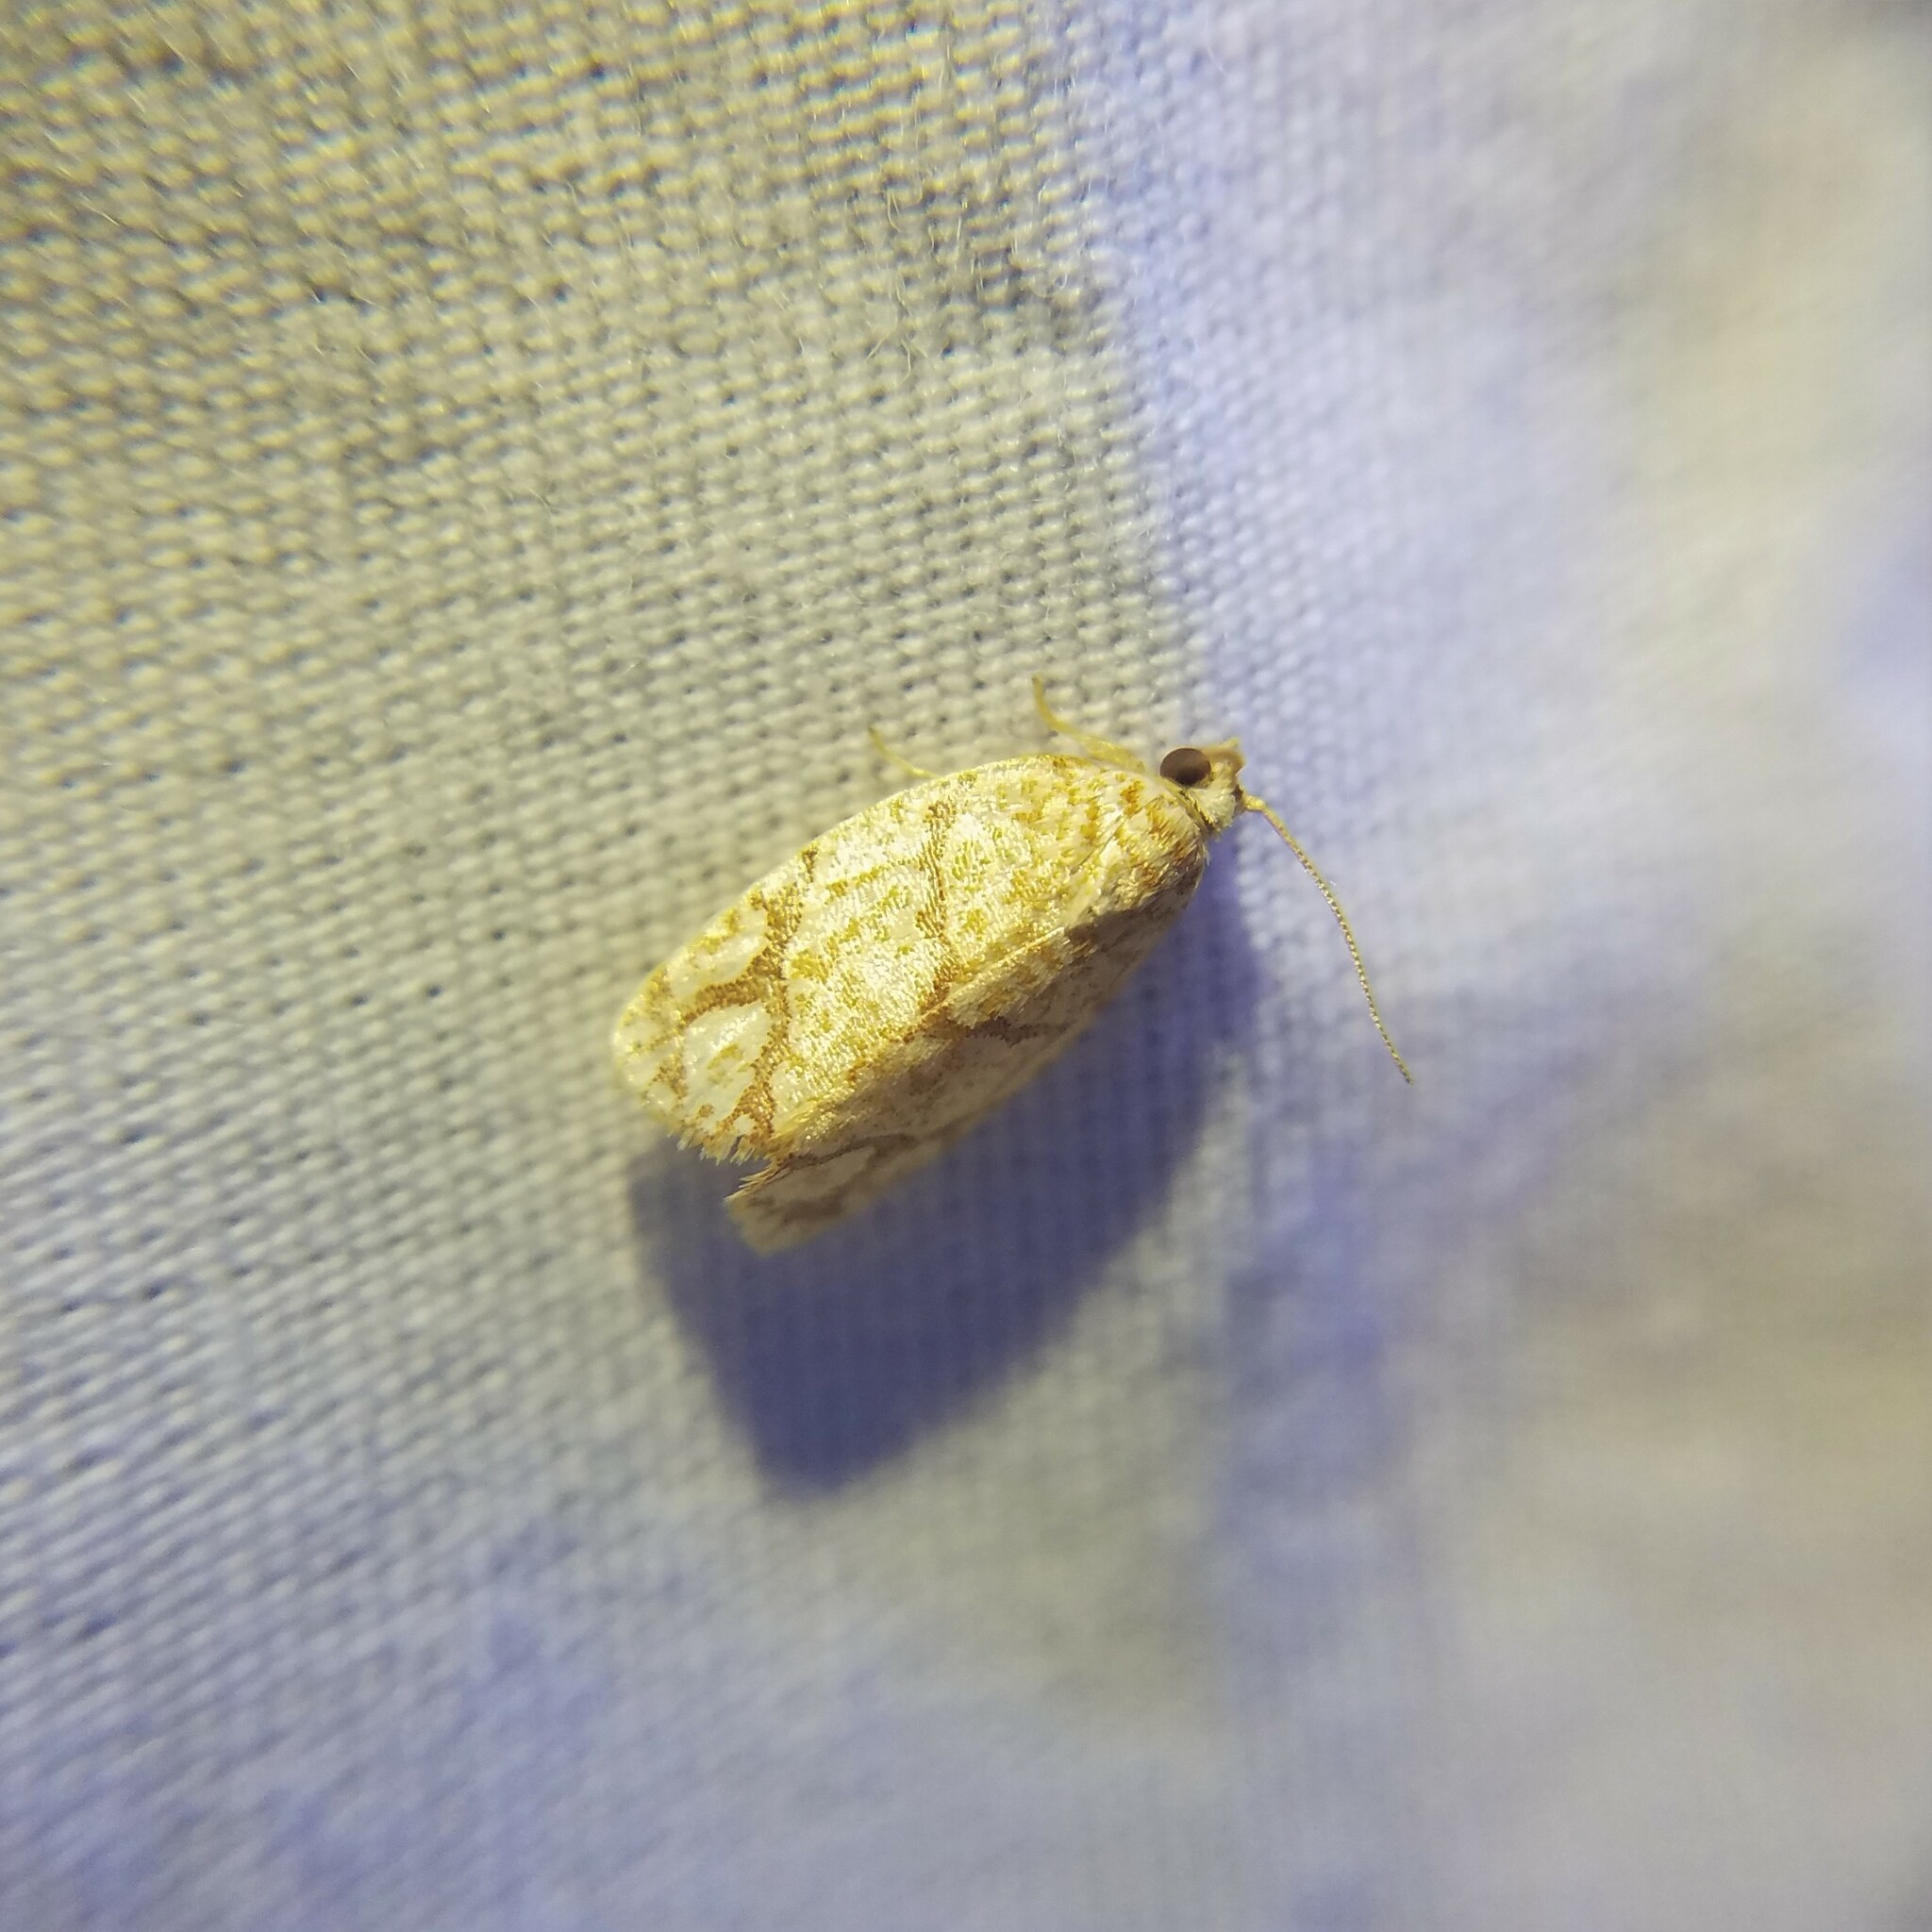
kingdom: Animalia
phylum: Arthropoda
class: Insecta
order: Lepidoptera
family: Tortricidae
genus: Argyrotaenia
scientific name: Argyrotaenia quercifoliana
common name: Yellow-winged oak leafroller moth
